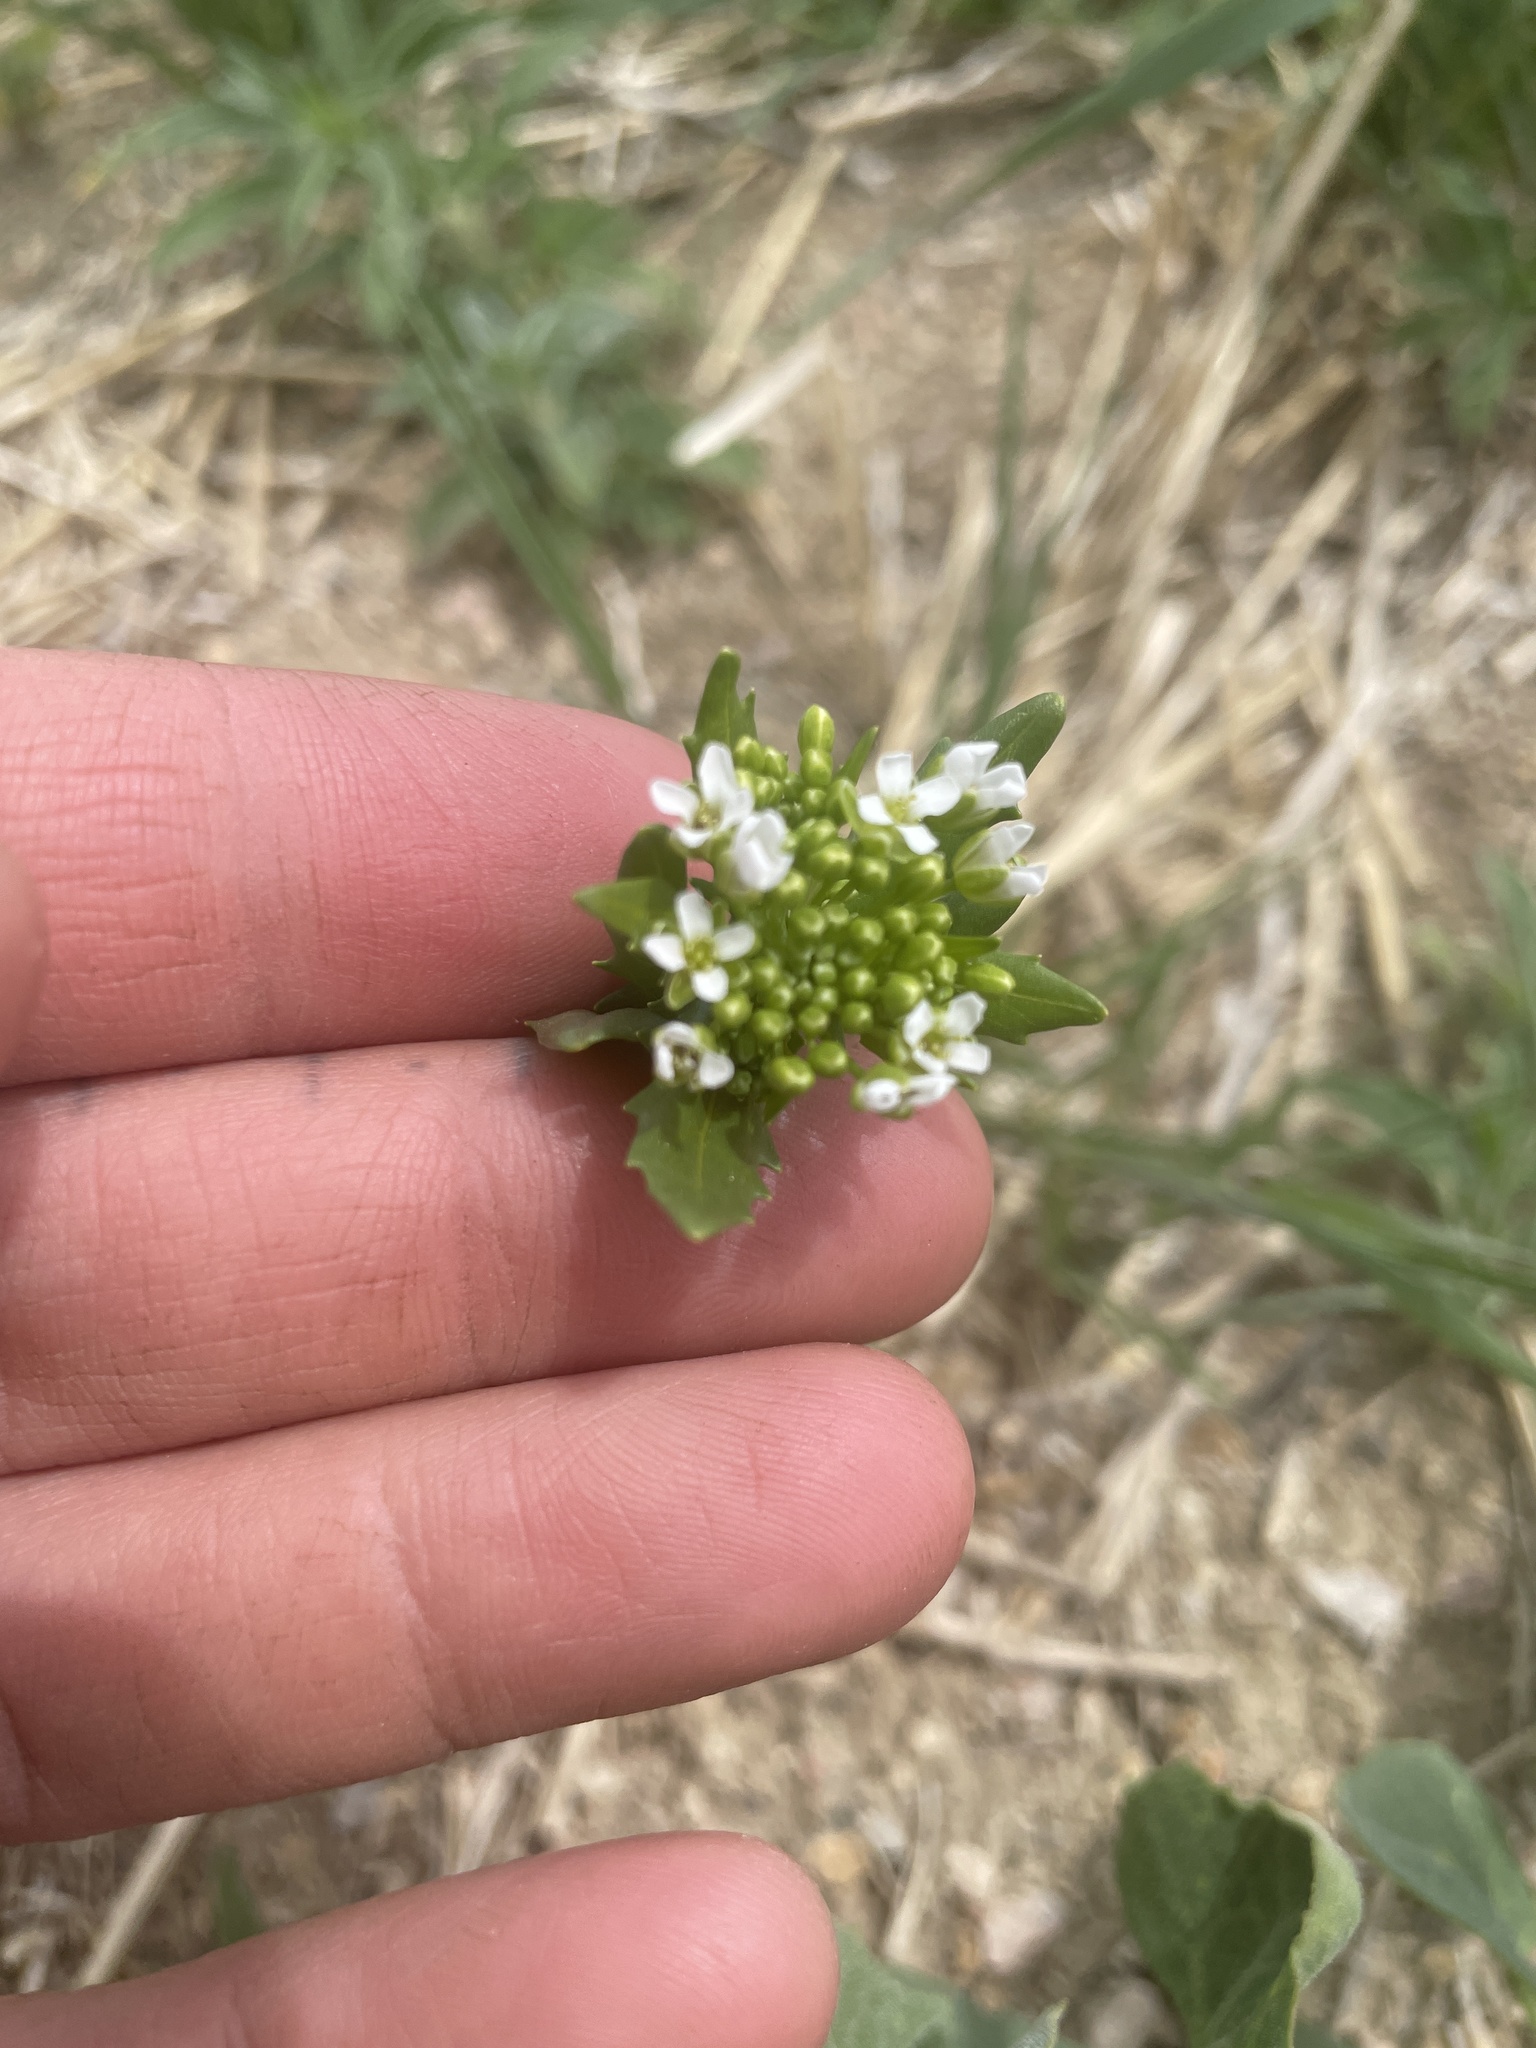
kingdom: Plantae
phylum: Tracheophyta
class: Magnoliopsida
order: Brassicales
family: Brassicaceae
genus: Thlaspi
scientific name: Thlaspi arvense
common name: Field pennycress
